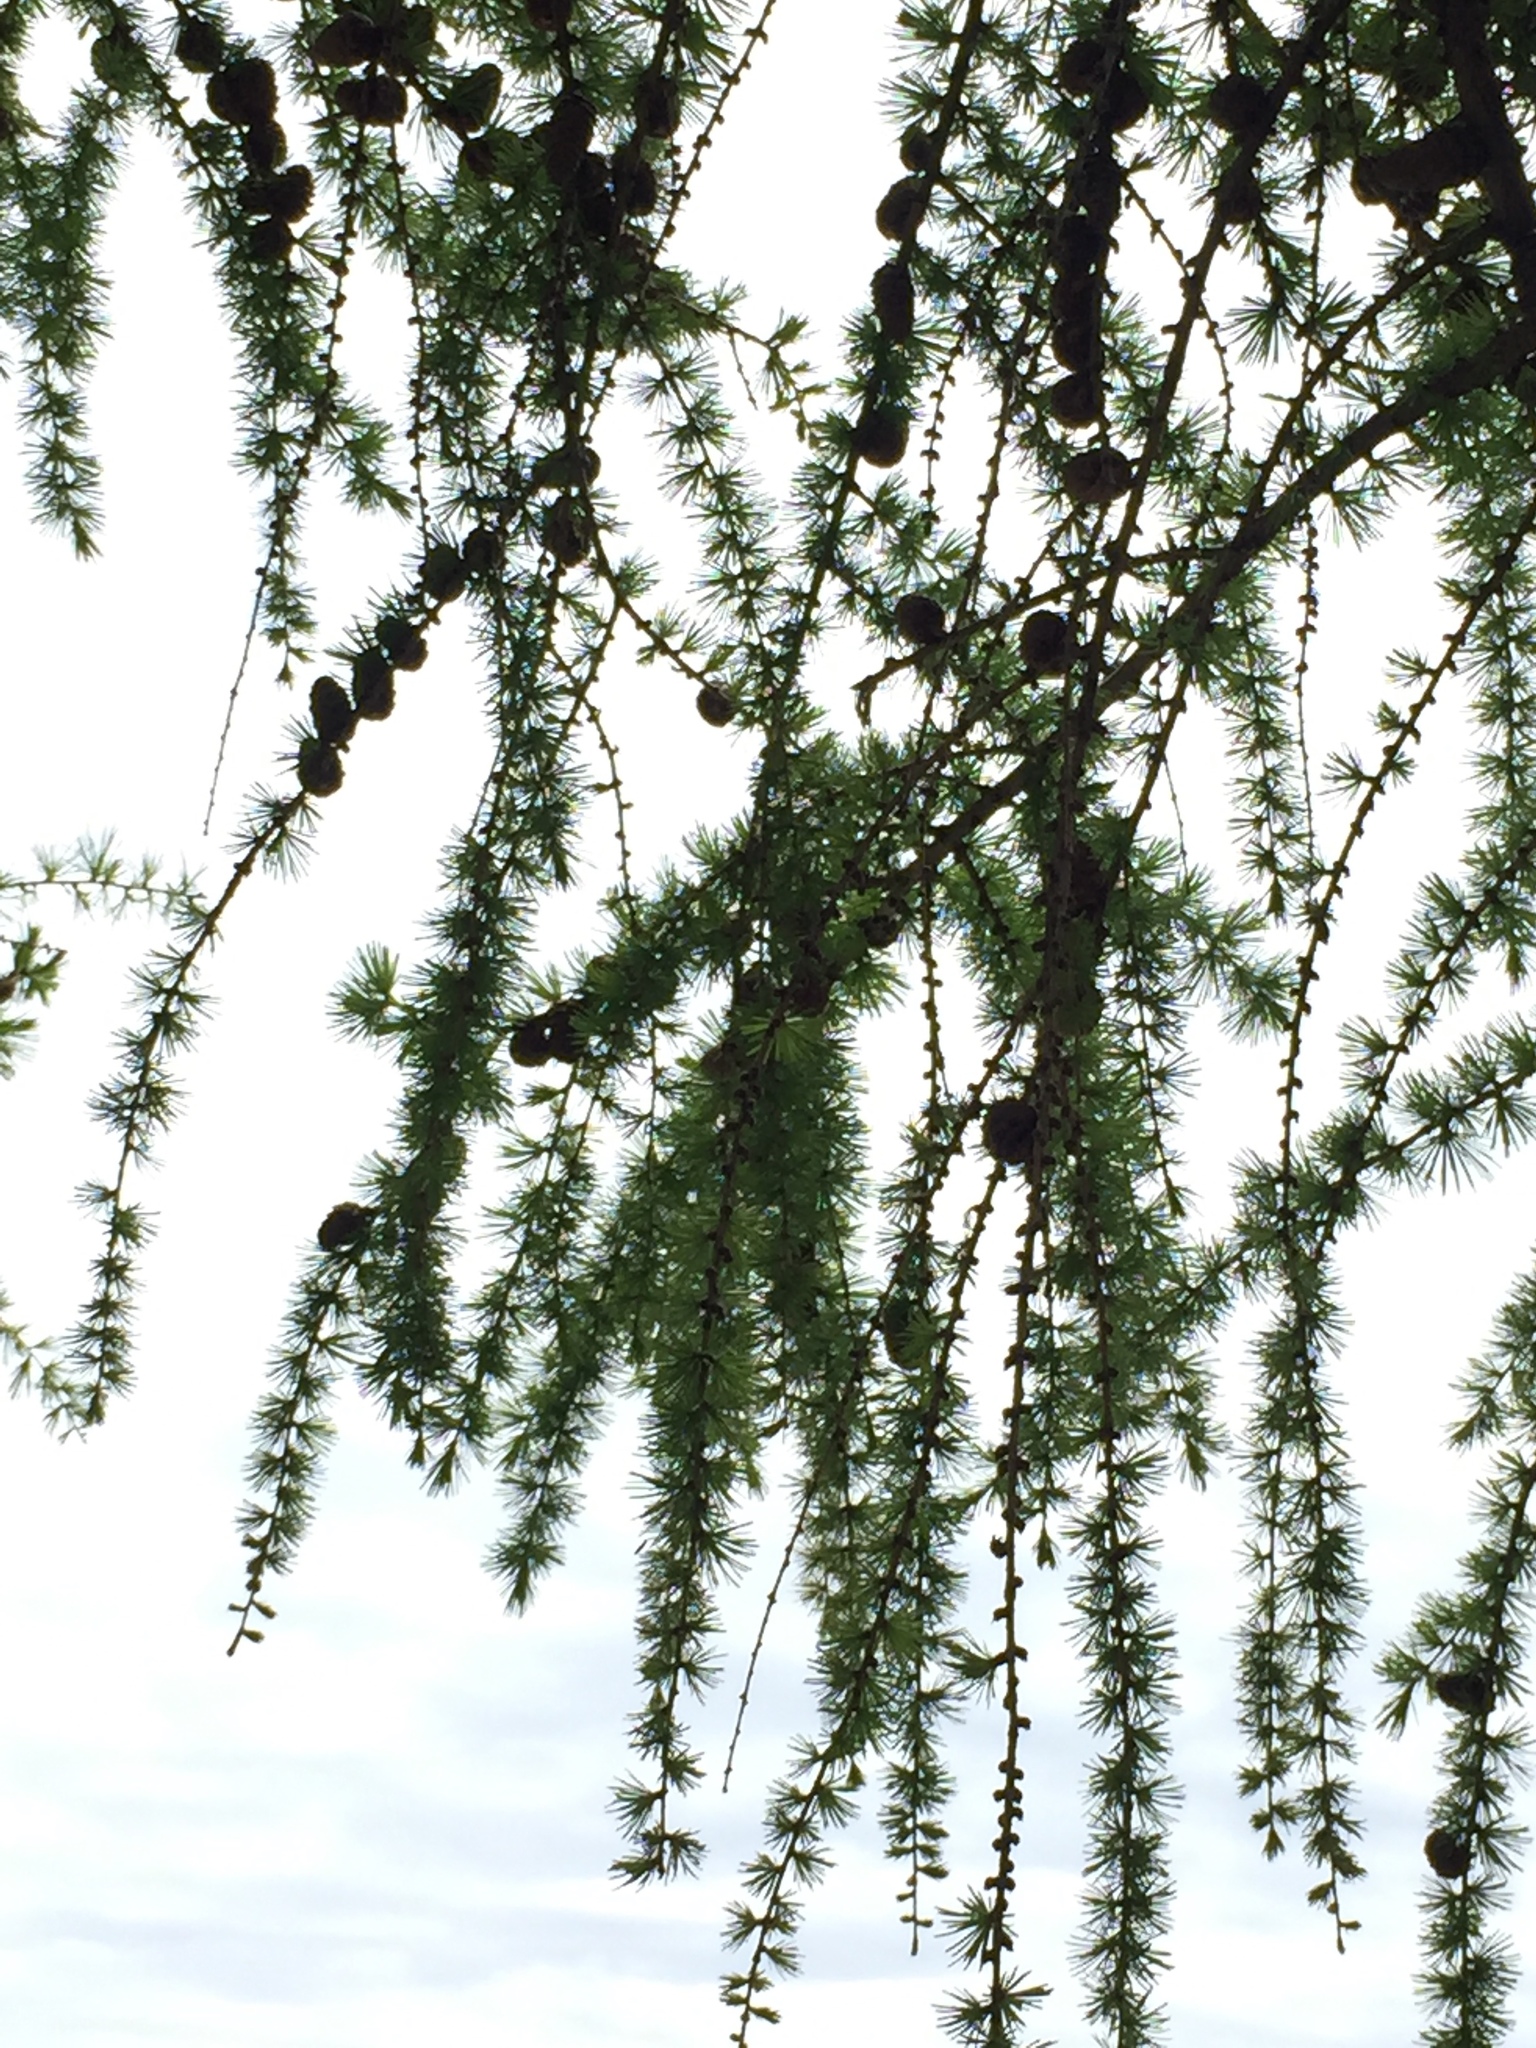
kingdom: Plantae
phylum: Tracheophyta
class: Pinopsida
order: Pinales
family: Pinaceae
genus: Larix
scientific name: Larix decidua
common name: European larch
